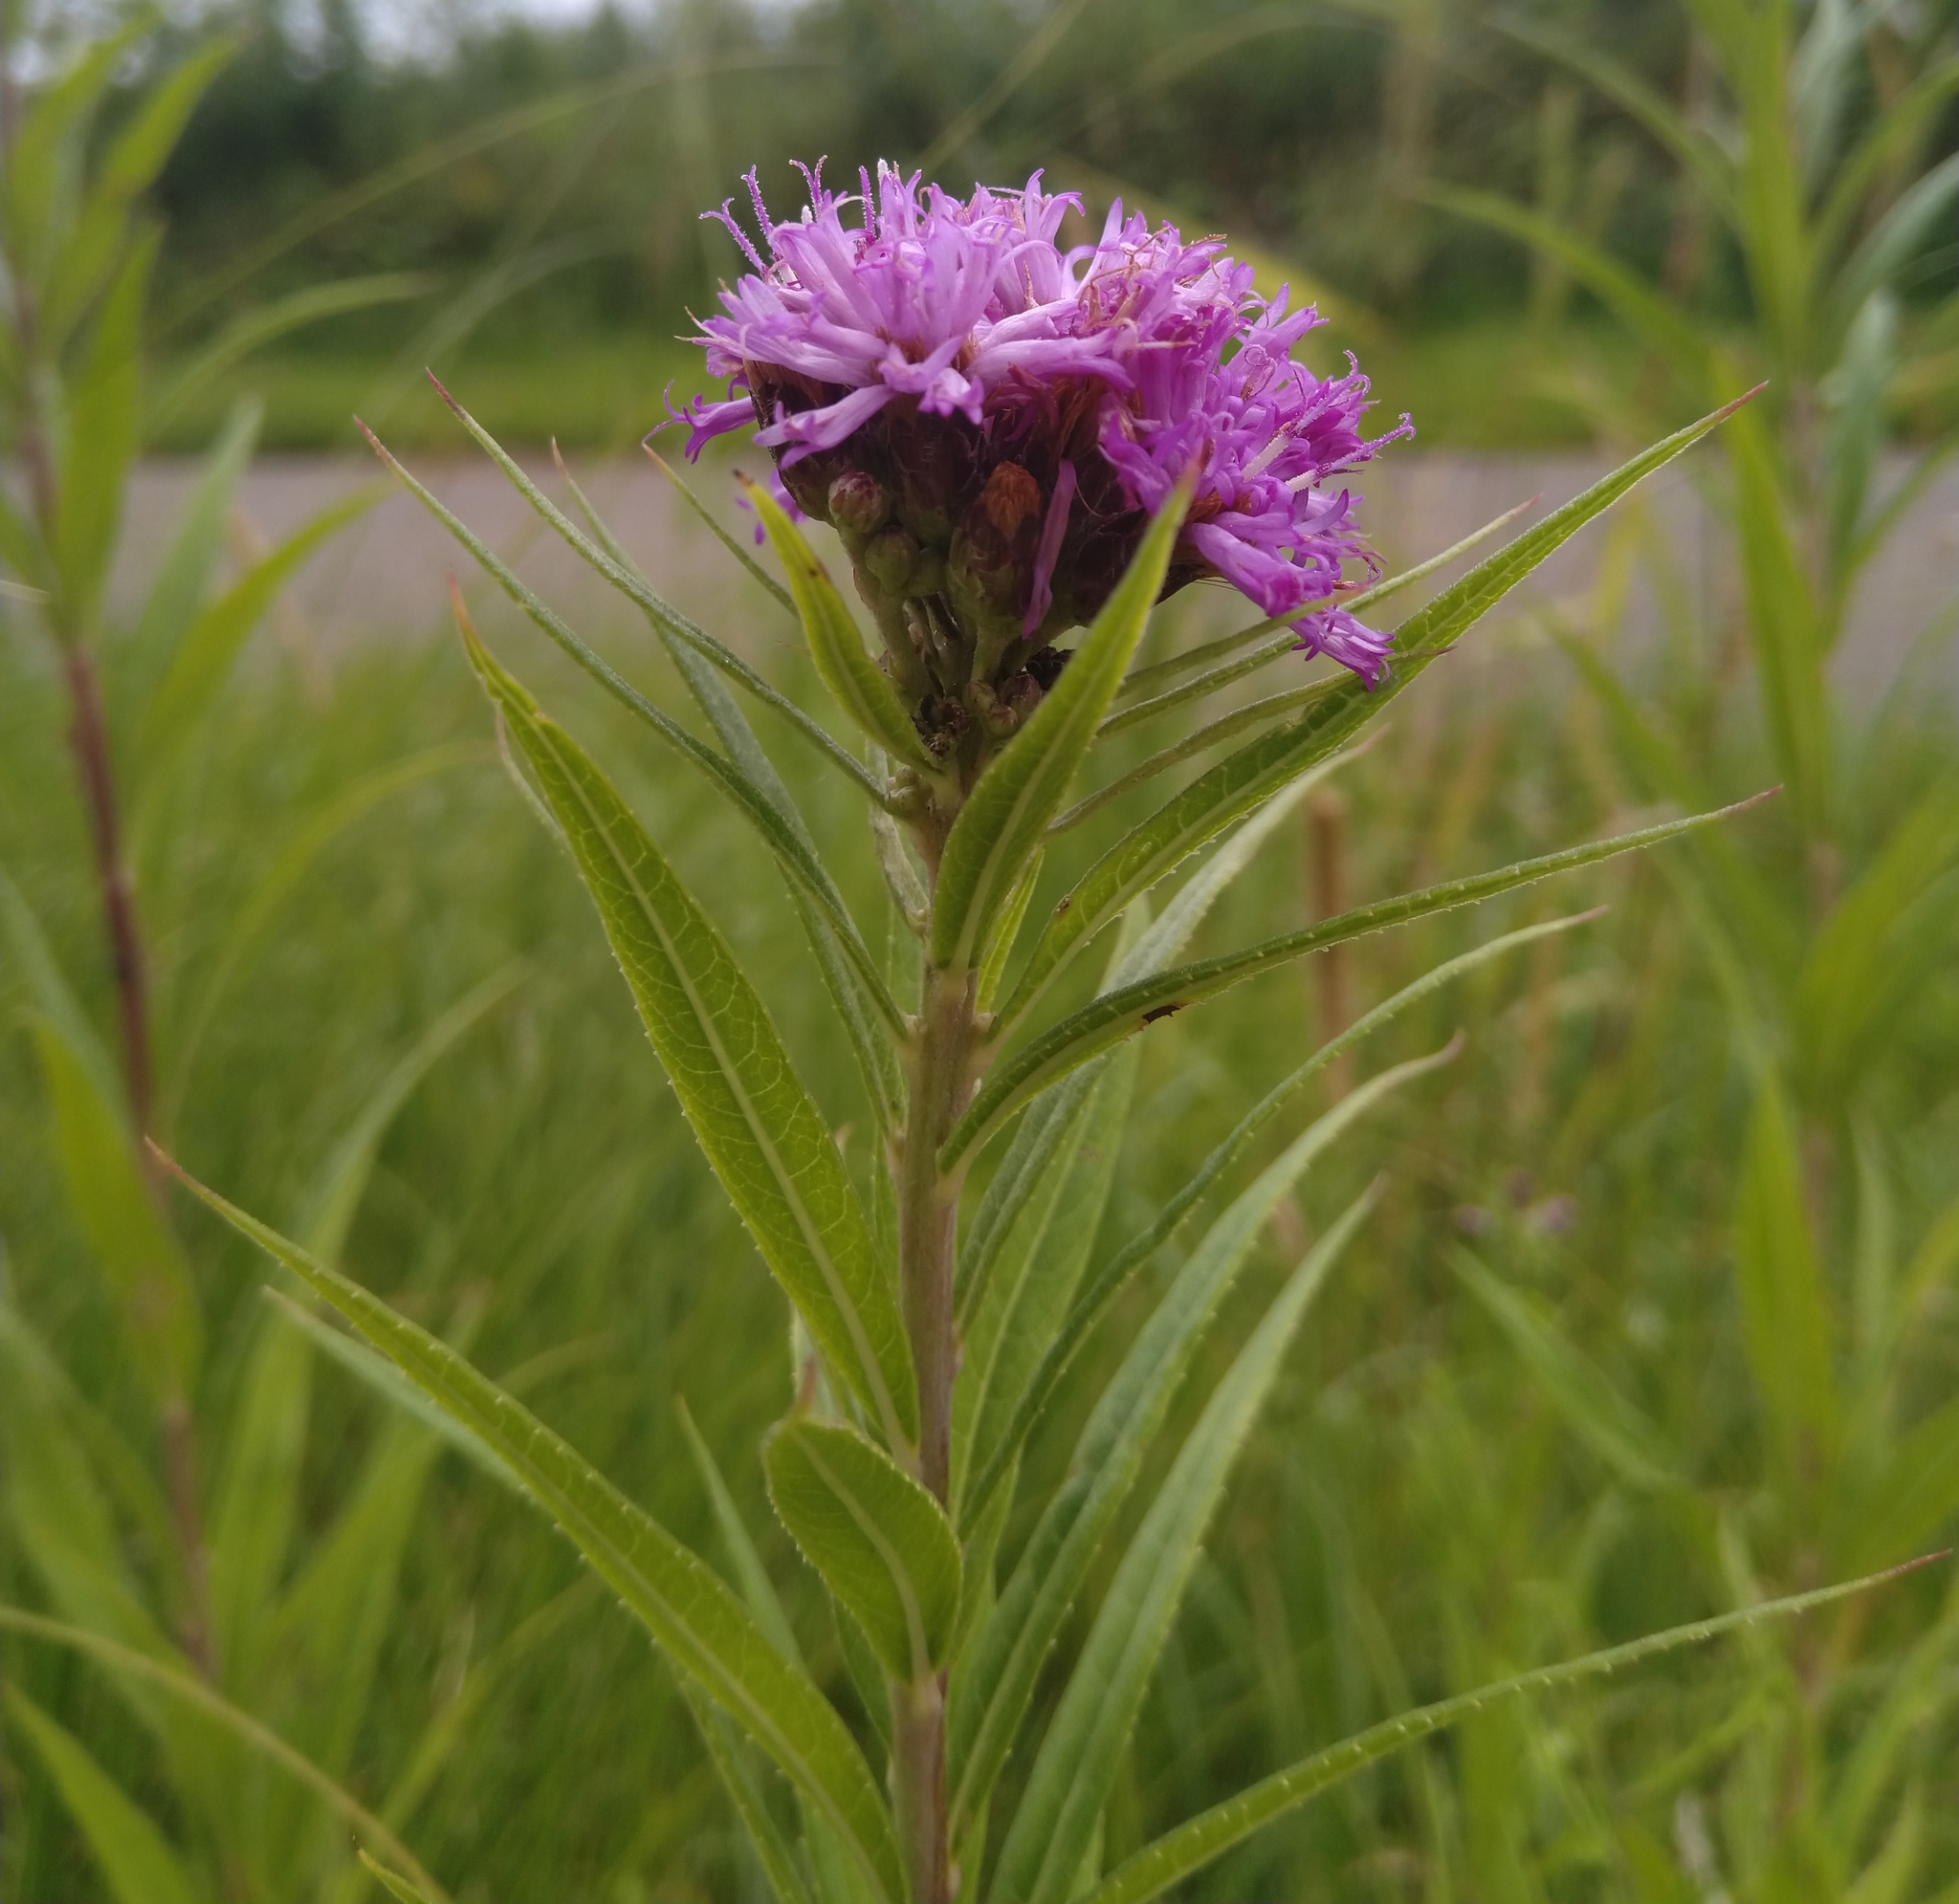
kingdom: Plantae
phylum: Tracheophyta
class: Magnoliopsida
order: Asterales
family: Asteraceae
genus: Vernonia
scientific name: Vernonia fasciculata
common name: Fascicled ironweed
